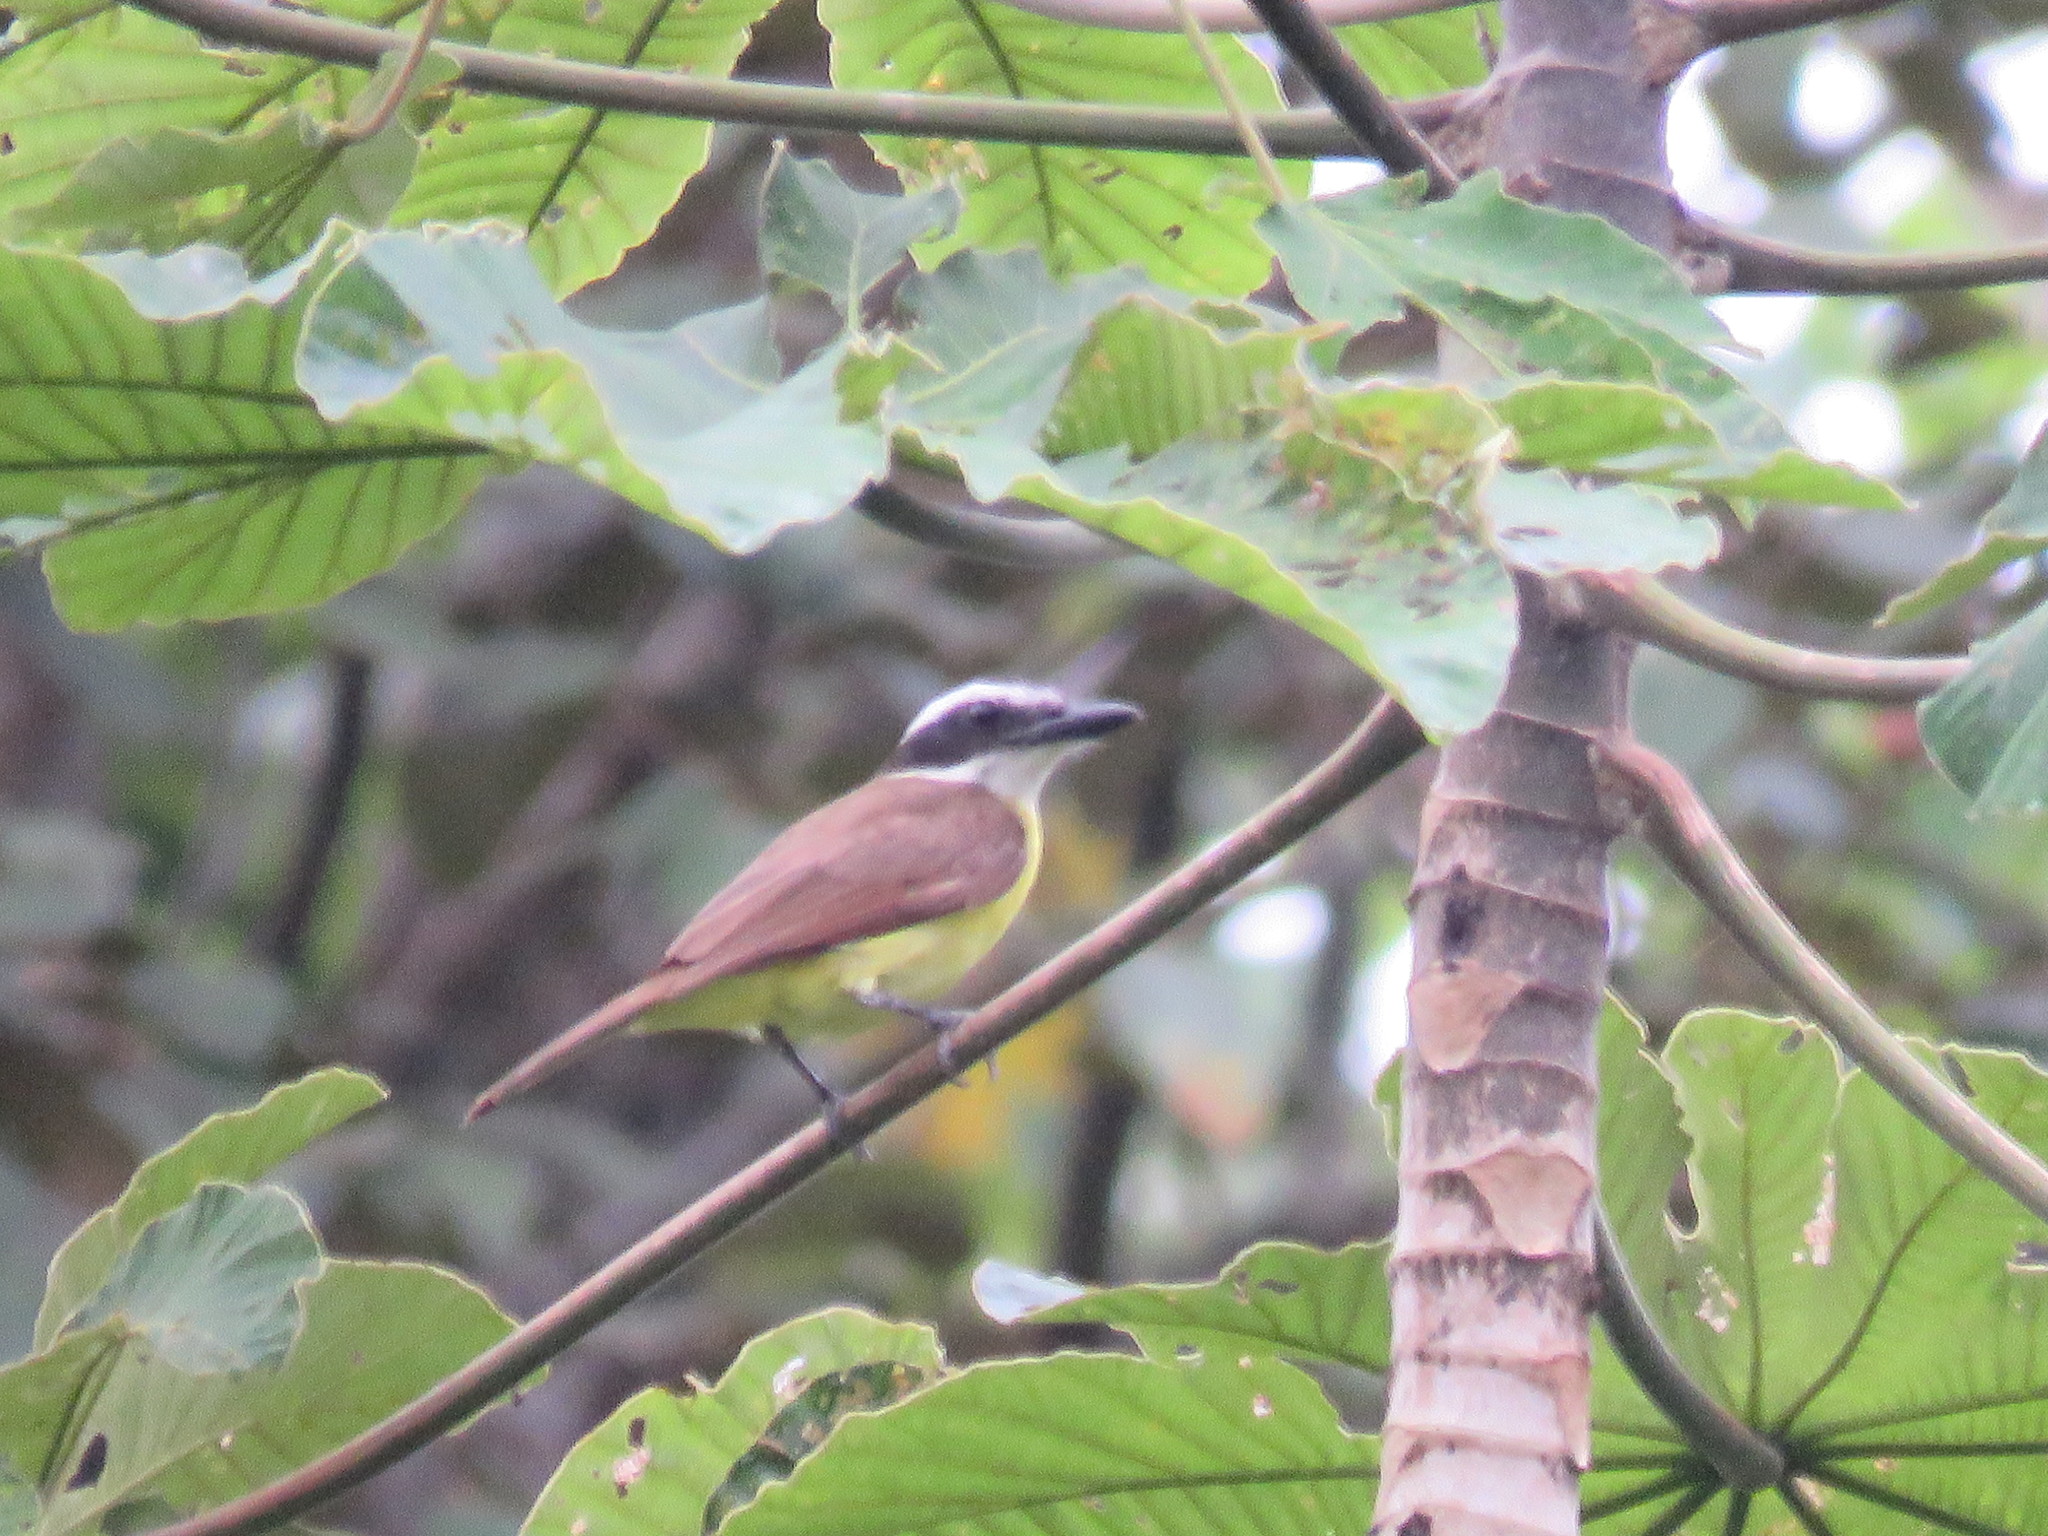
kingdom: Animalia
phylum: Chordata
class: Aves
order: Passeriformes
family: Tyrannidae
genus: Pitangus
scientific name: Pitangus sulphuratus
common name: Great kiskadee
